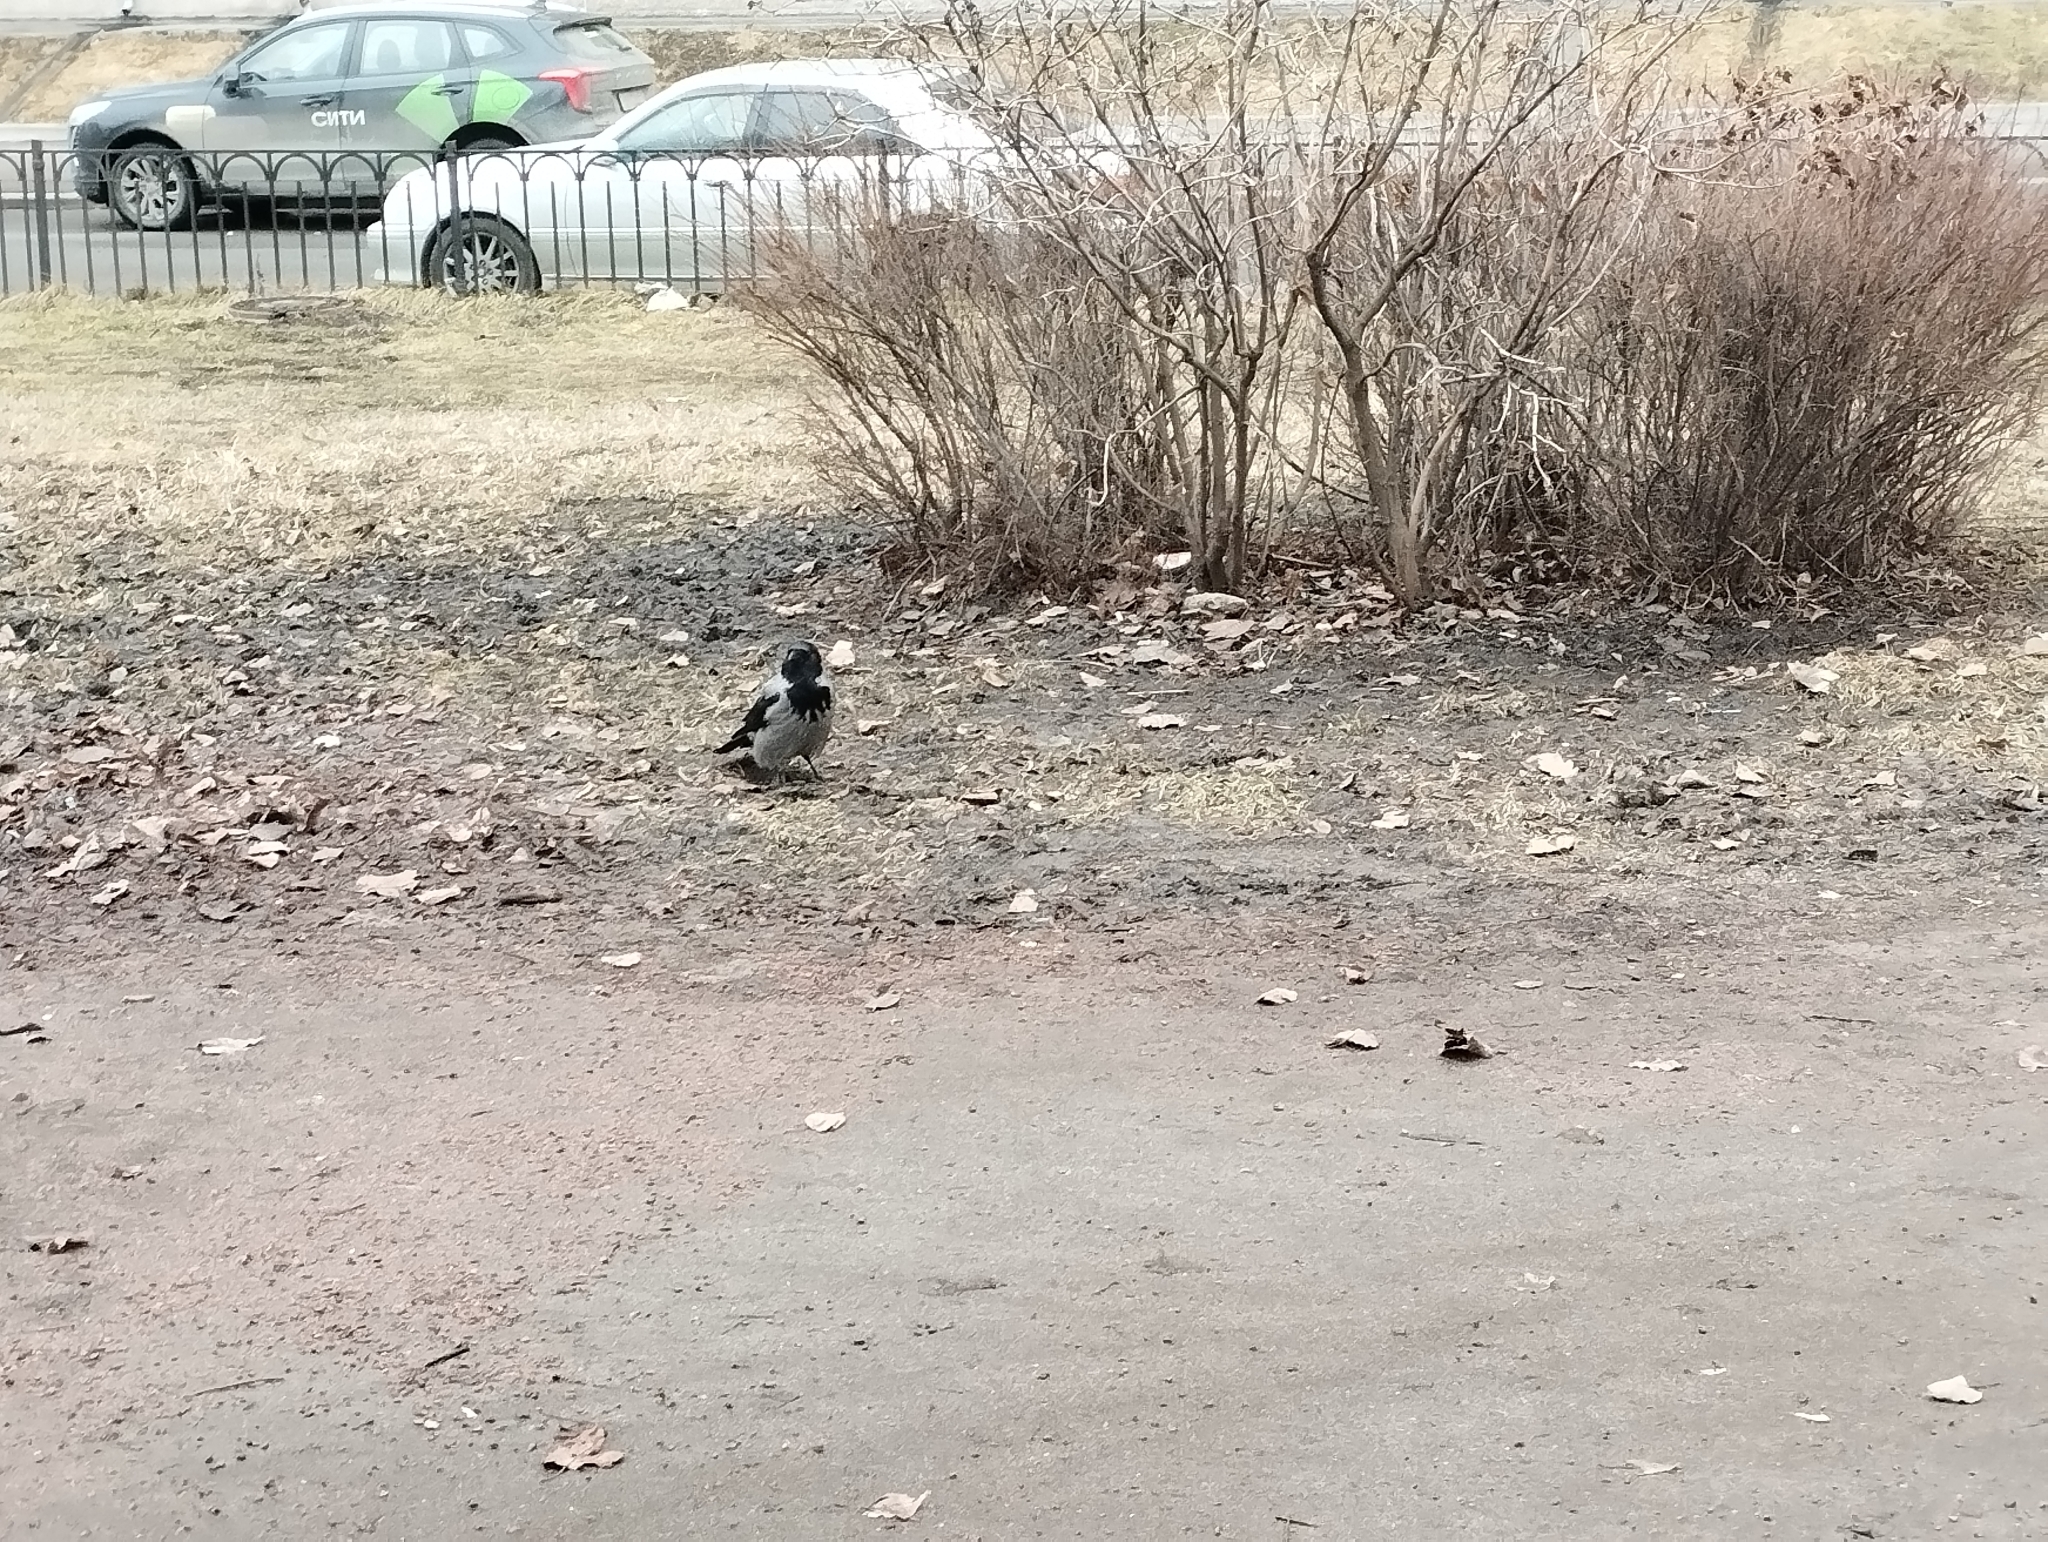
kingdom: Animalia
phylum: Chordata
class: Aves
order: Passeriformes
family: Corvidae
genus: Corvus
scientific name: Corvus cornix
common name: Hooded crow
